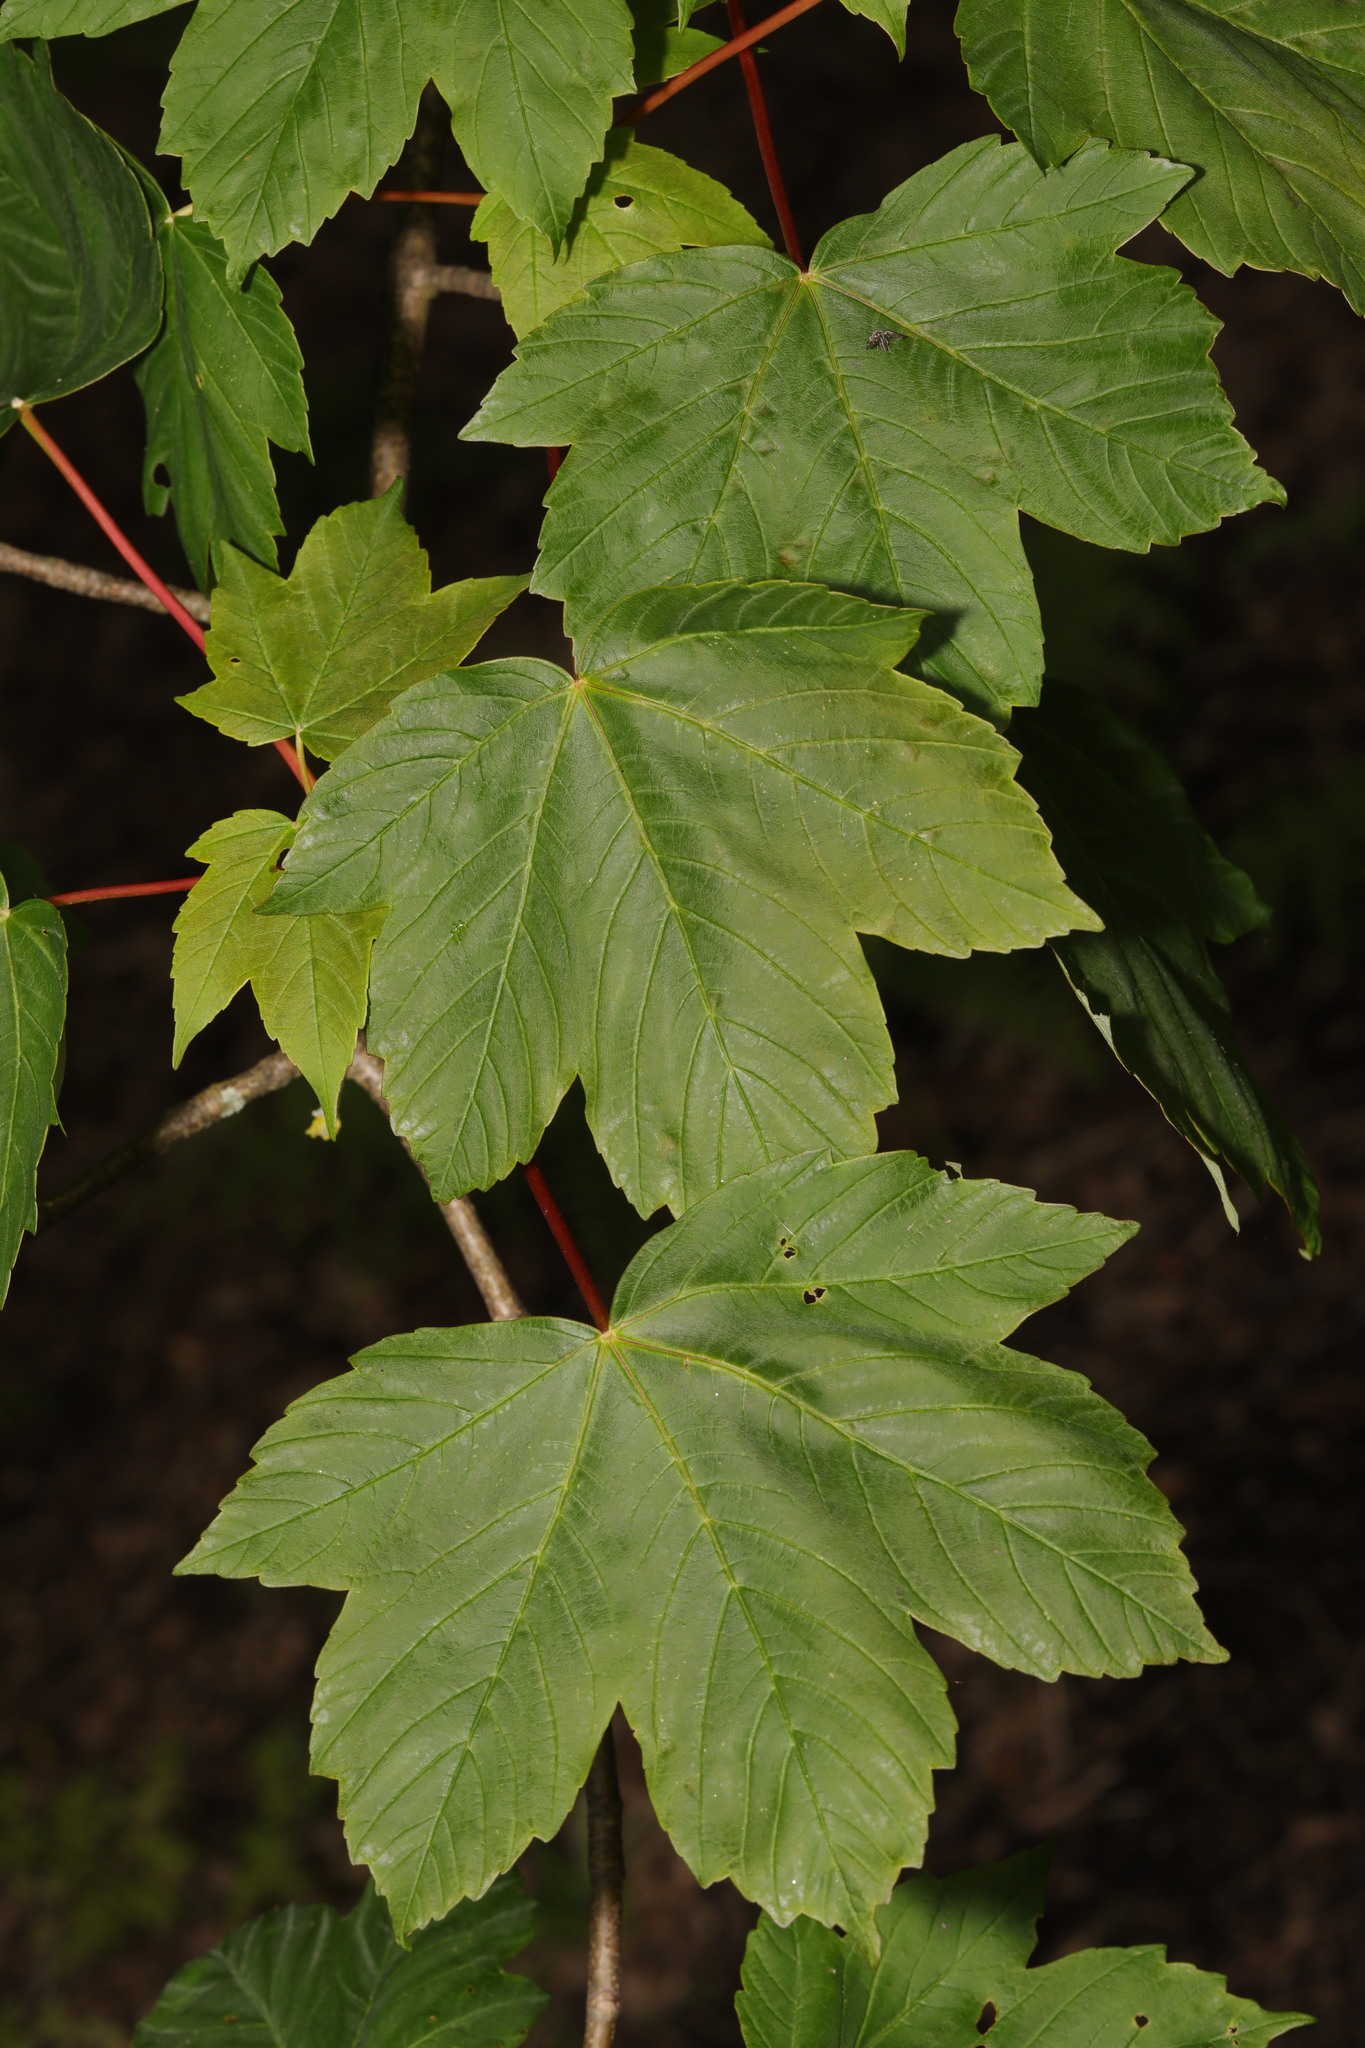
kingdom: Plantae
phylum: Tracheophyta
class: Magnoliopsida
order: Sapindales
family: Sapindaceae
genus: Acer
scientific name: Acer pseudoplatanus
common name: Sycamore
